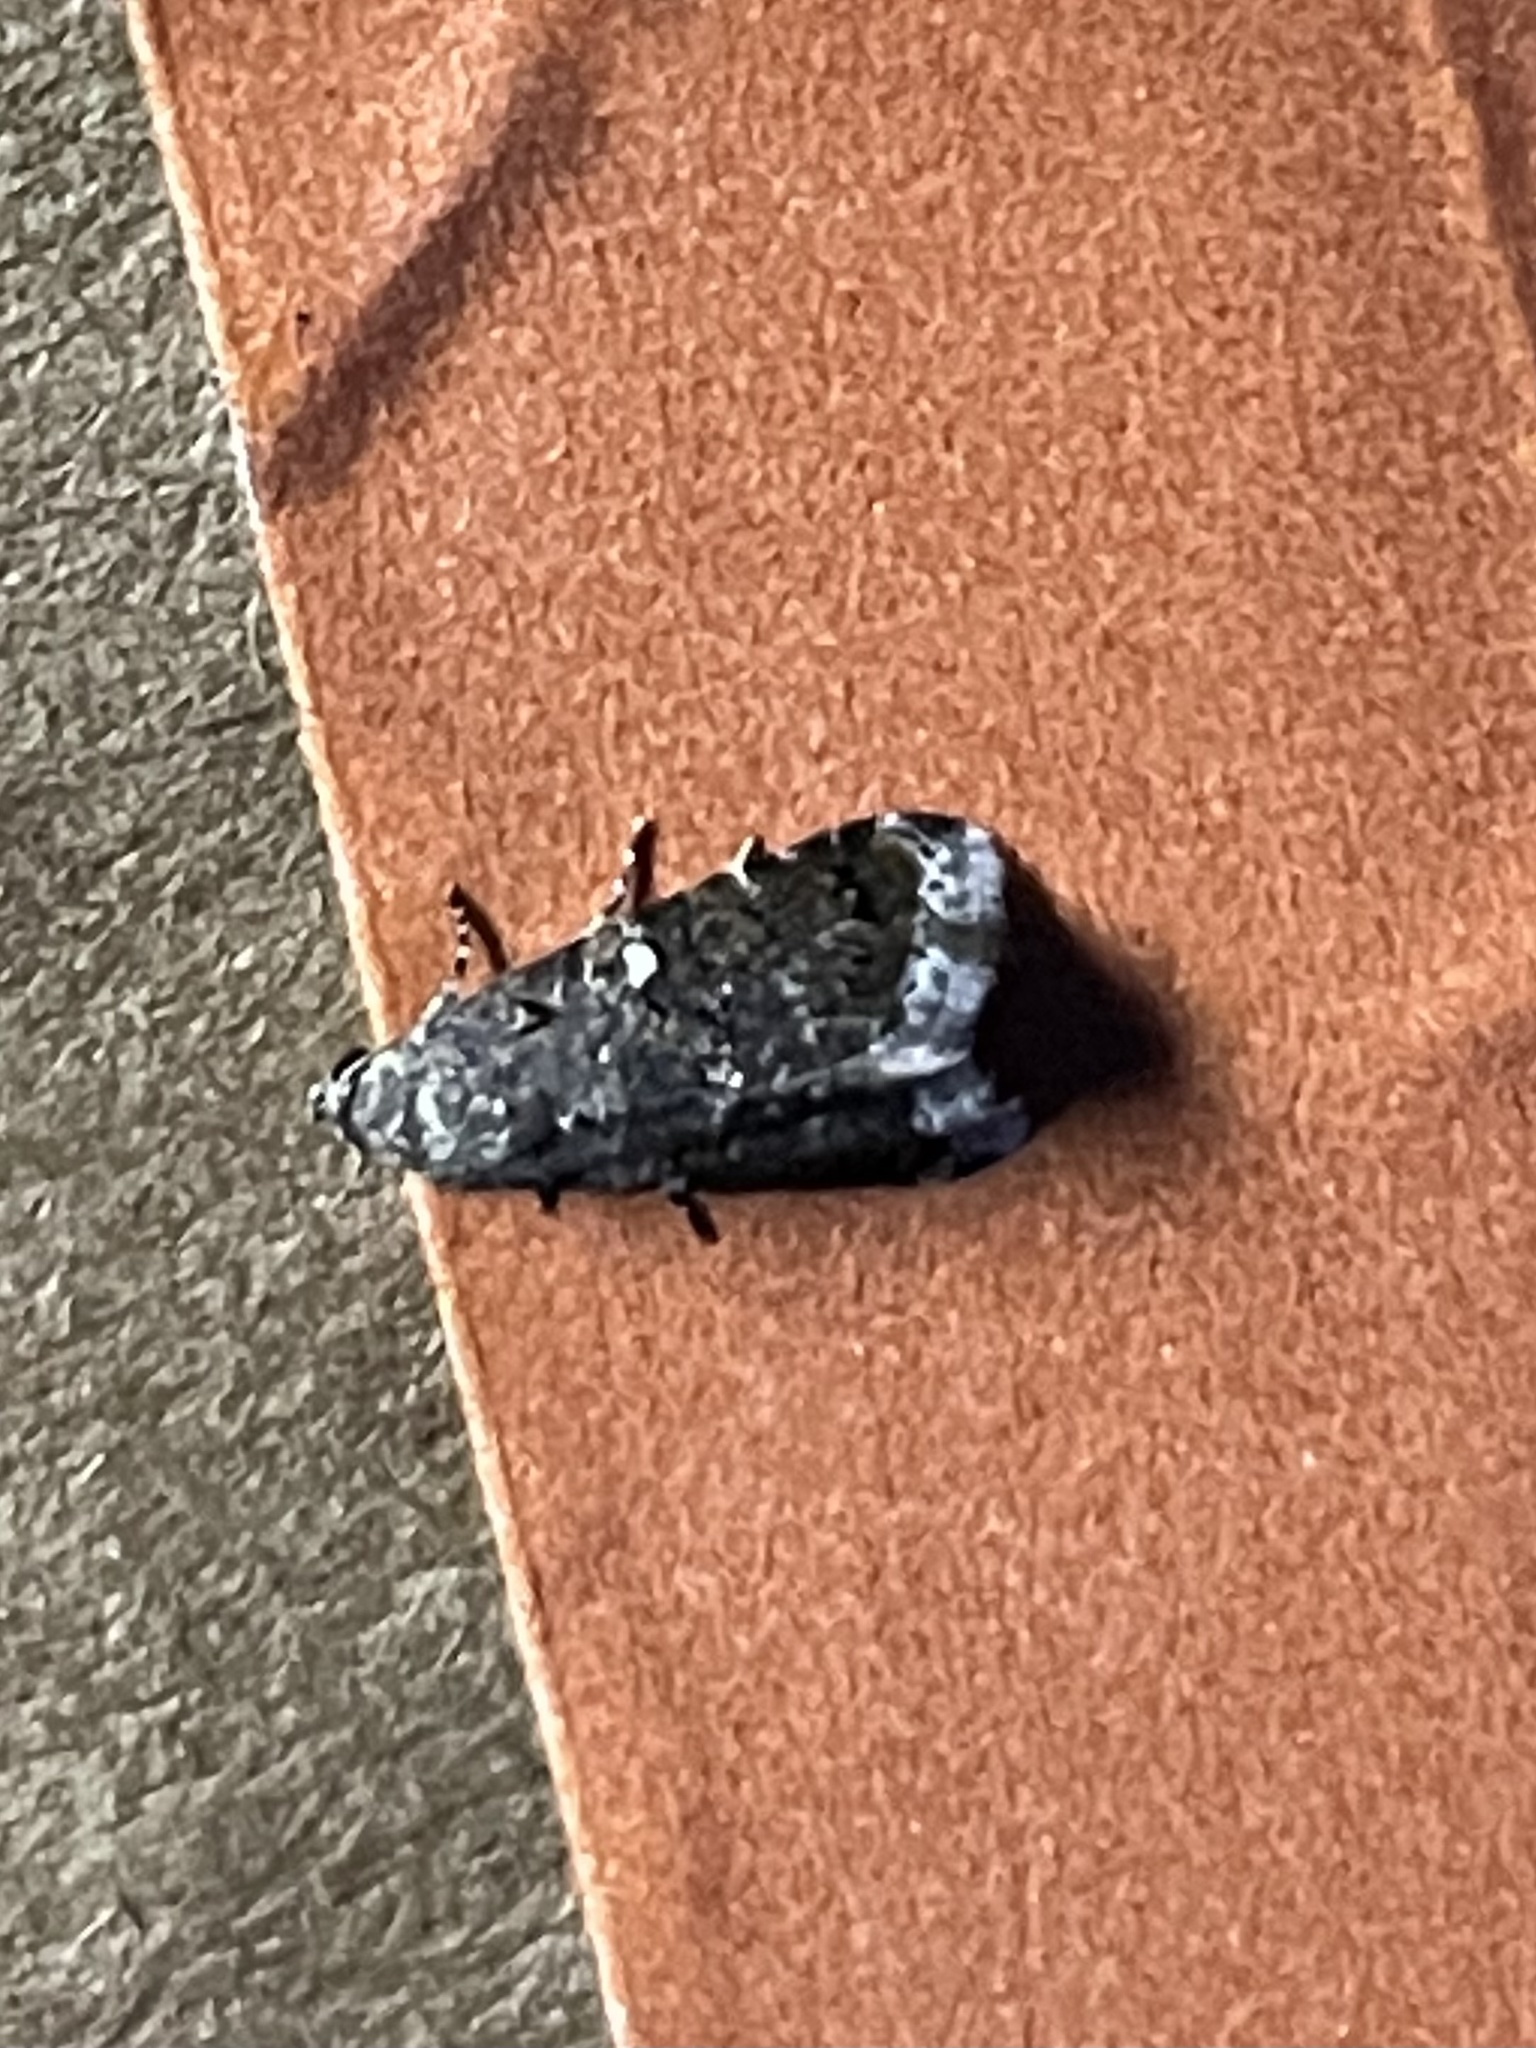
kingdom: Animalia
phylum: Arthropoda
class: Insecta
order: Lepidoptera
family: Noctuidae
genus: Tripudia
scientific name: Tripudia luxuriosa
